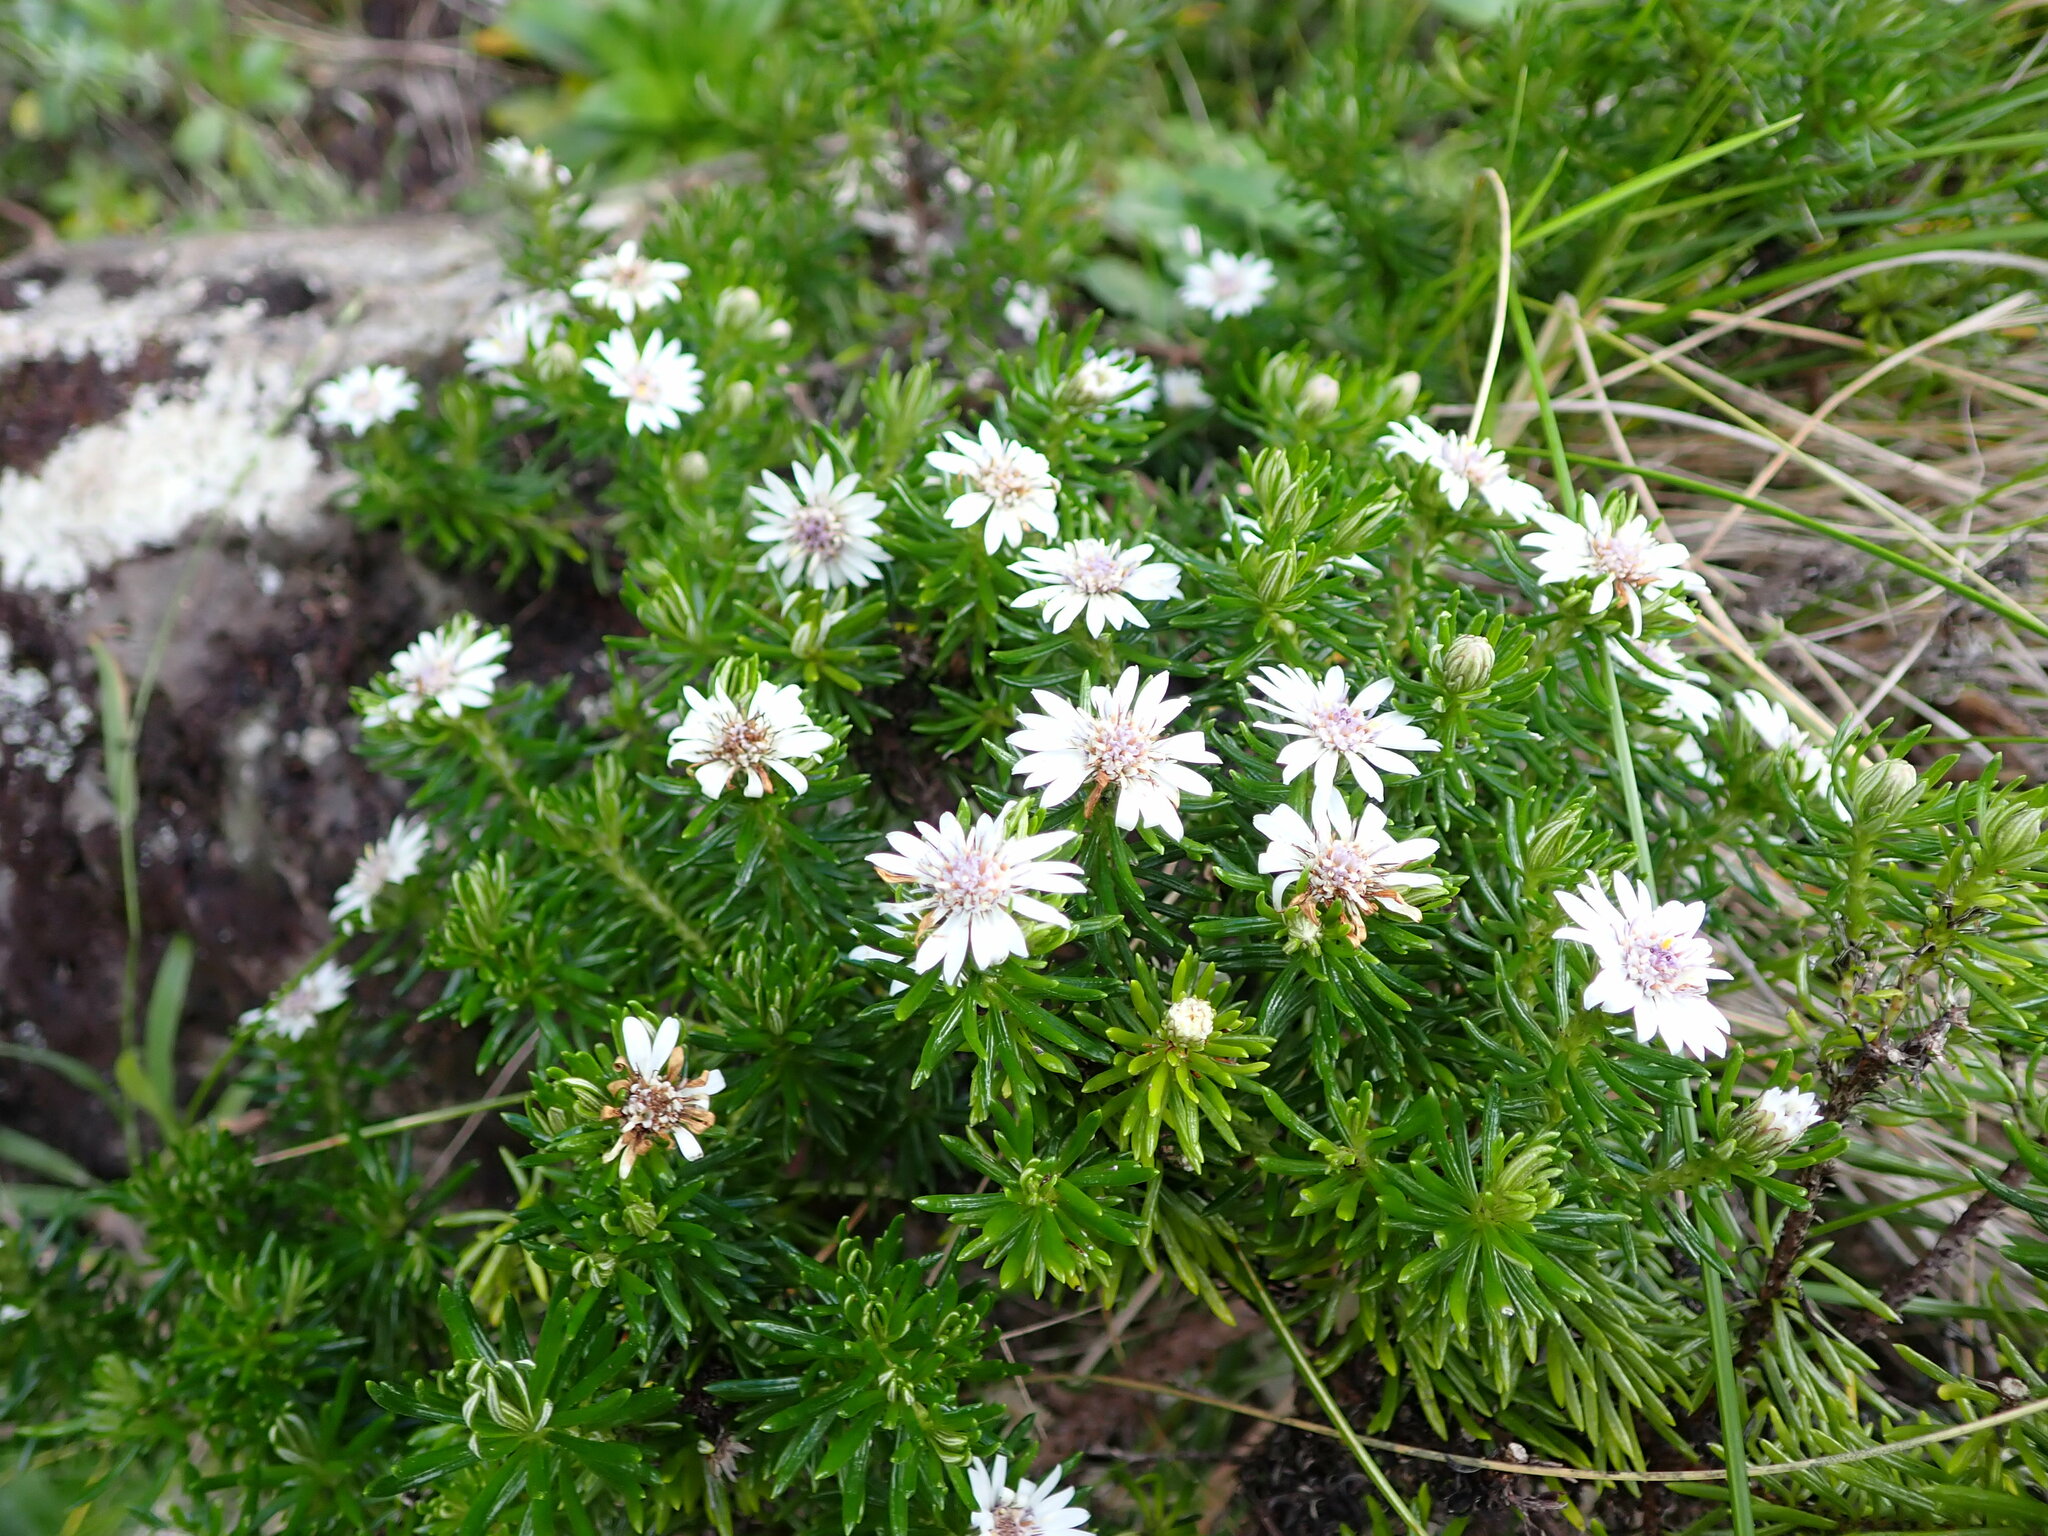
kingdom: Plantae
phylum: Tracheophyta
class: Magnoliopsida
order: Asterales
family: Asteraceae
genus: Olearia
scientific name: Olearia ballii
